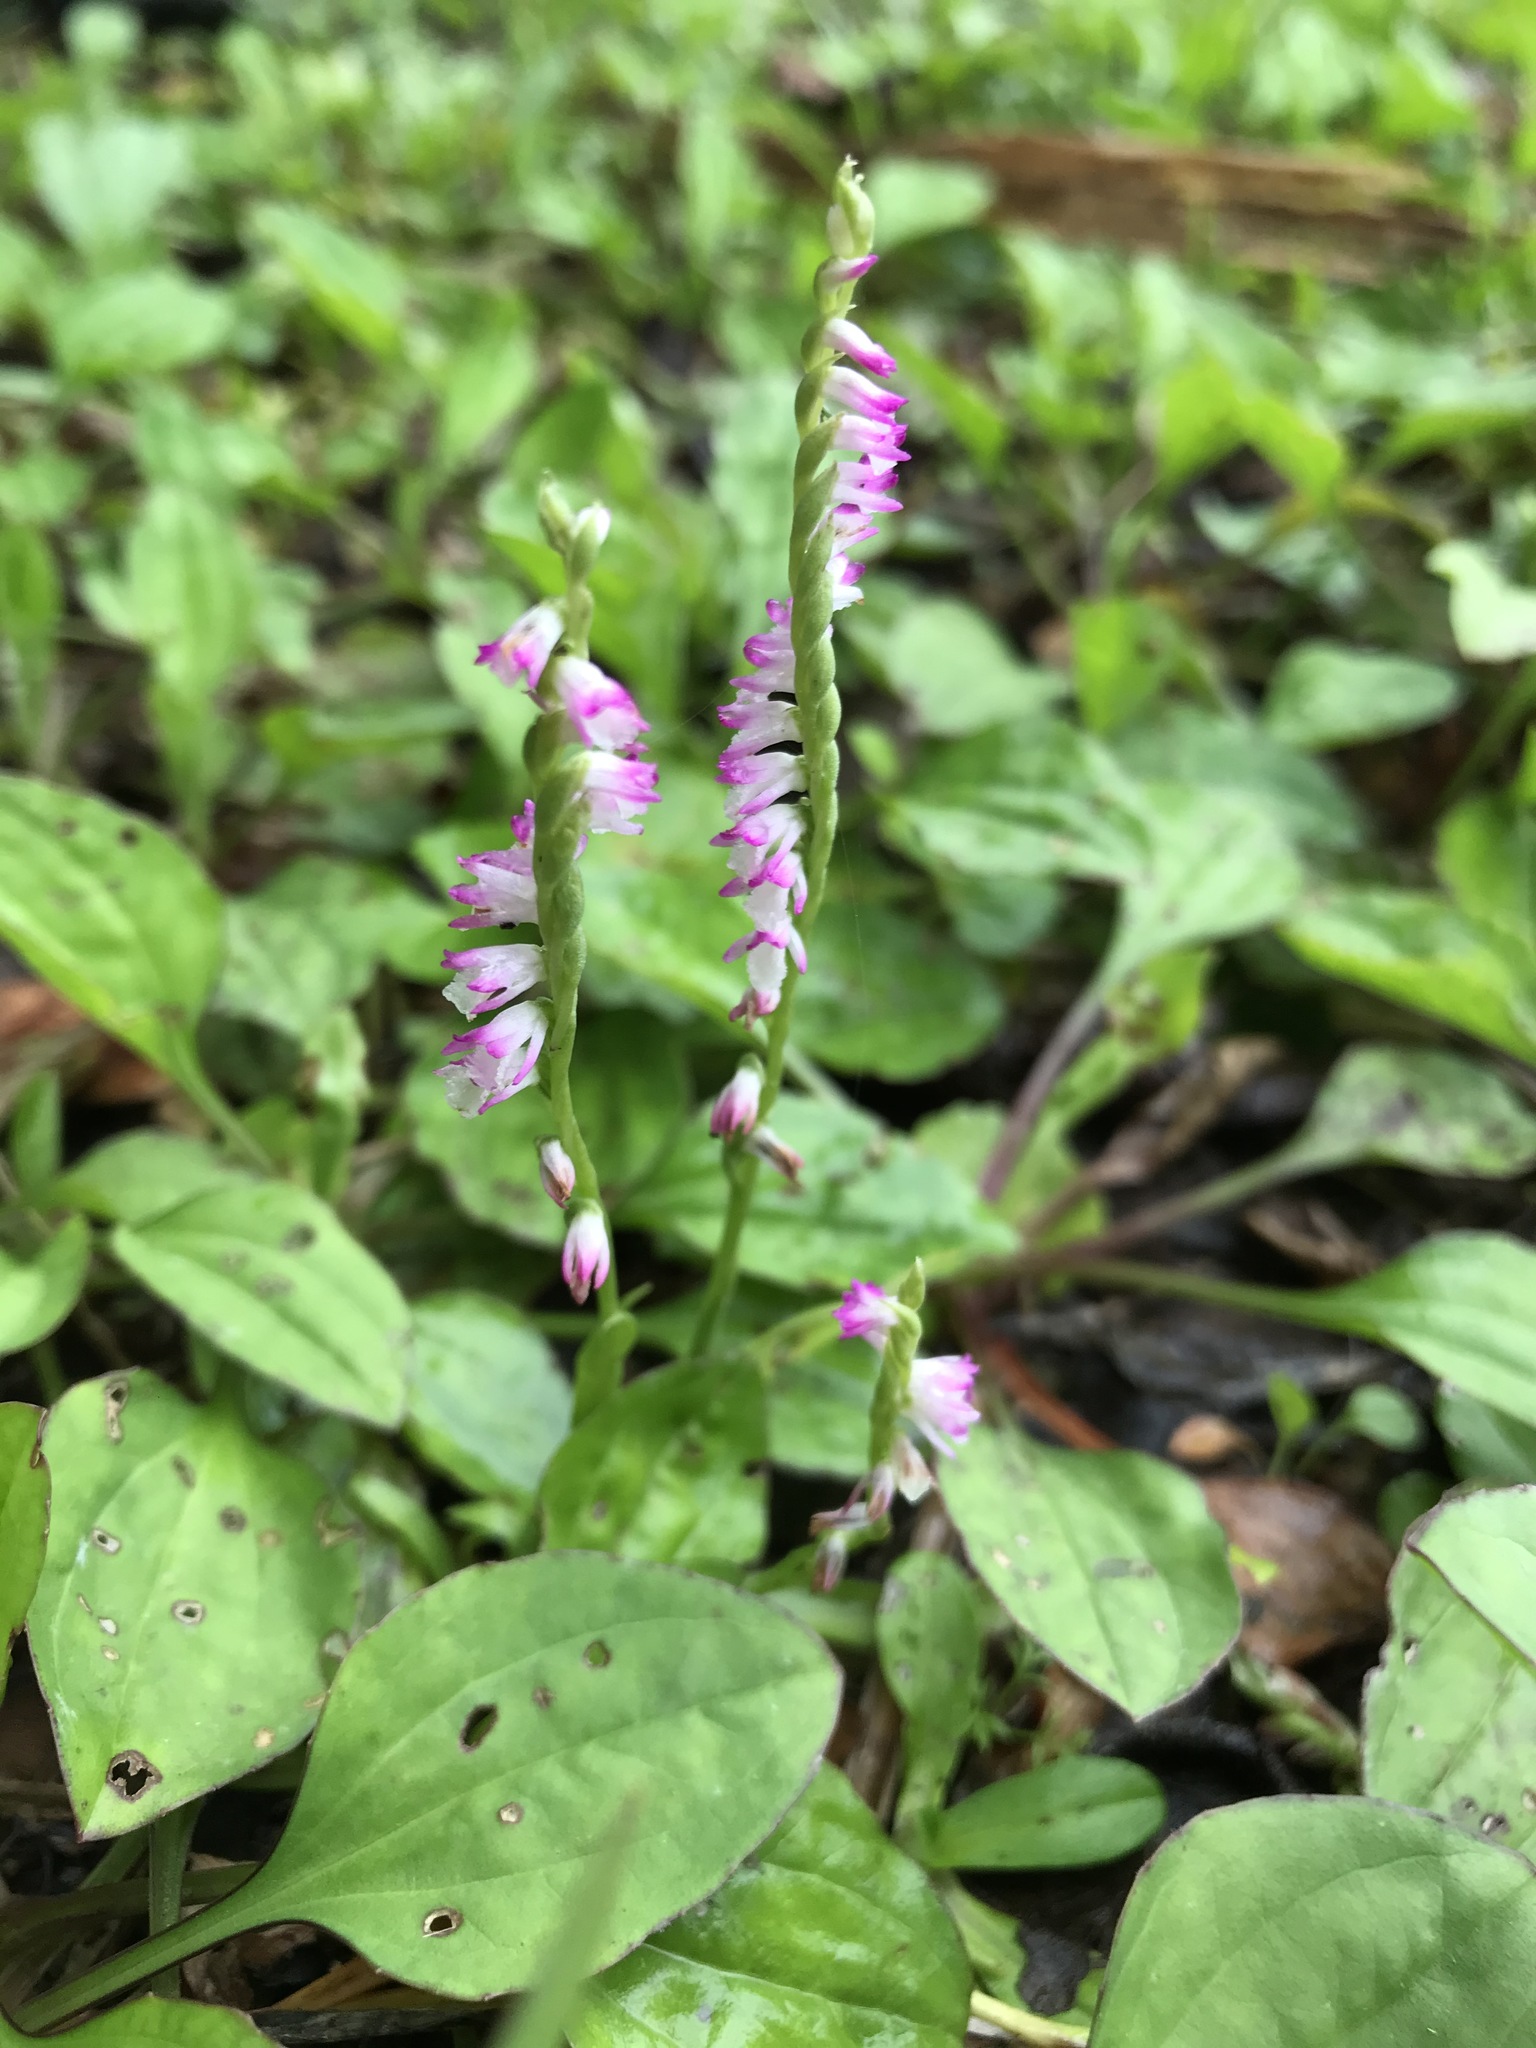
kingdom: Plantae
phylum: Tracheophyta
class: Liliopsida
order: Asparagales
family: Orchidaceae
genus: Spiranthes
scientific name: Spiranthes sinensis
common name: Chinese spiranthes
